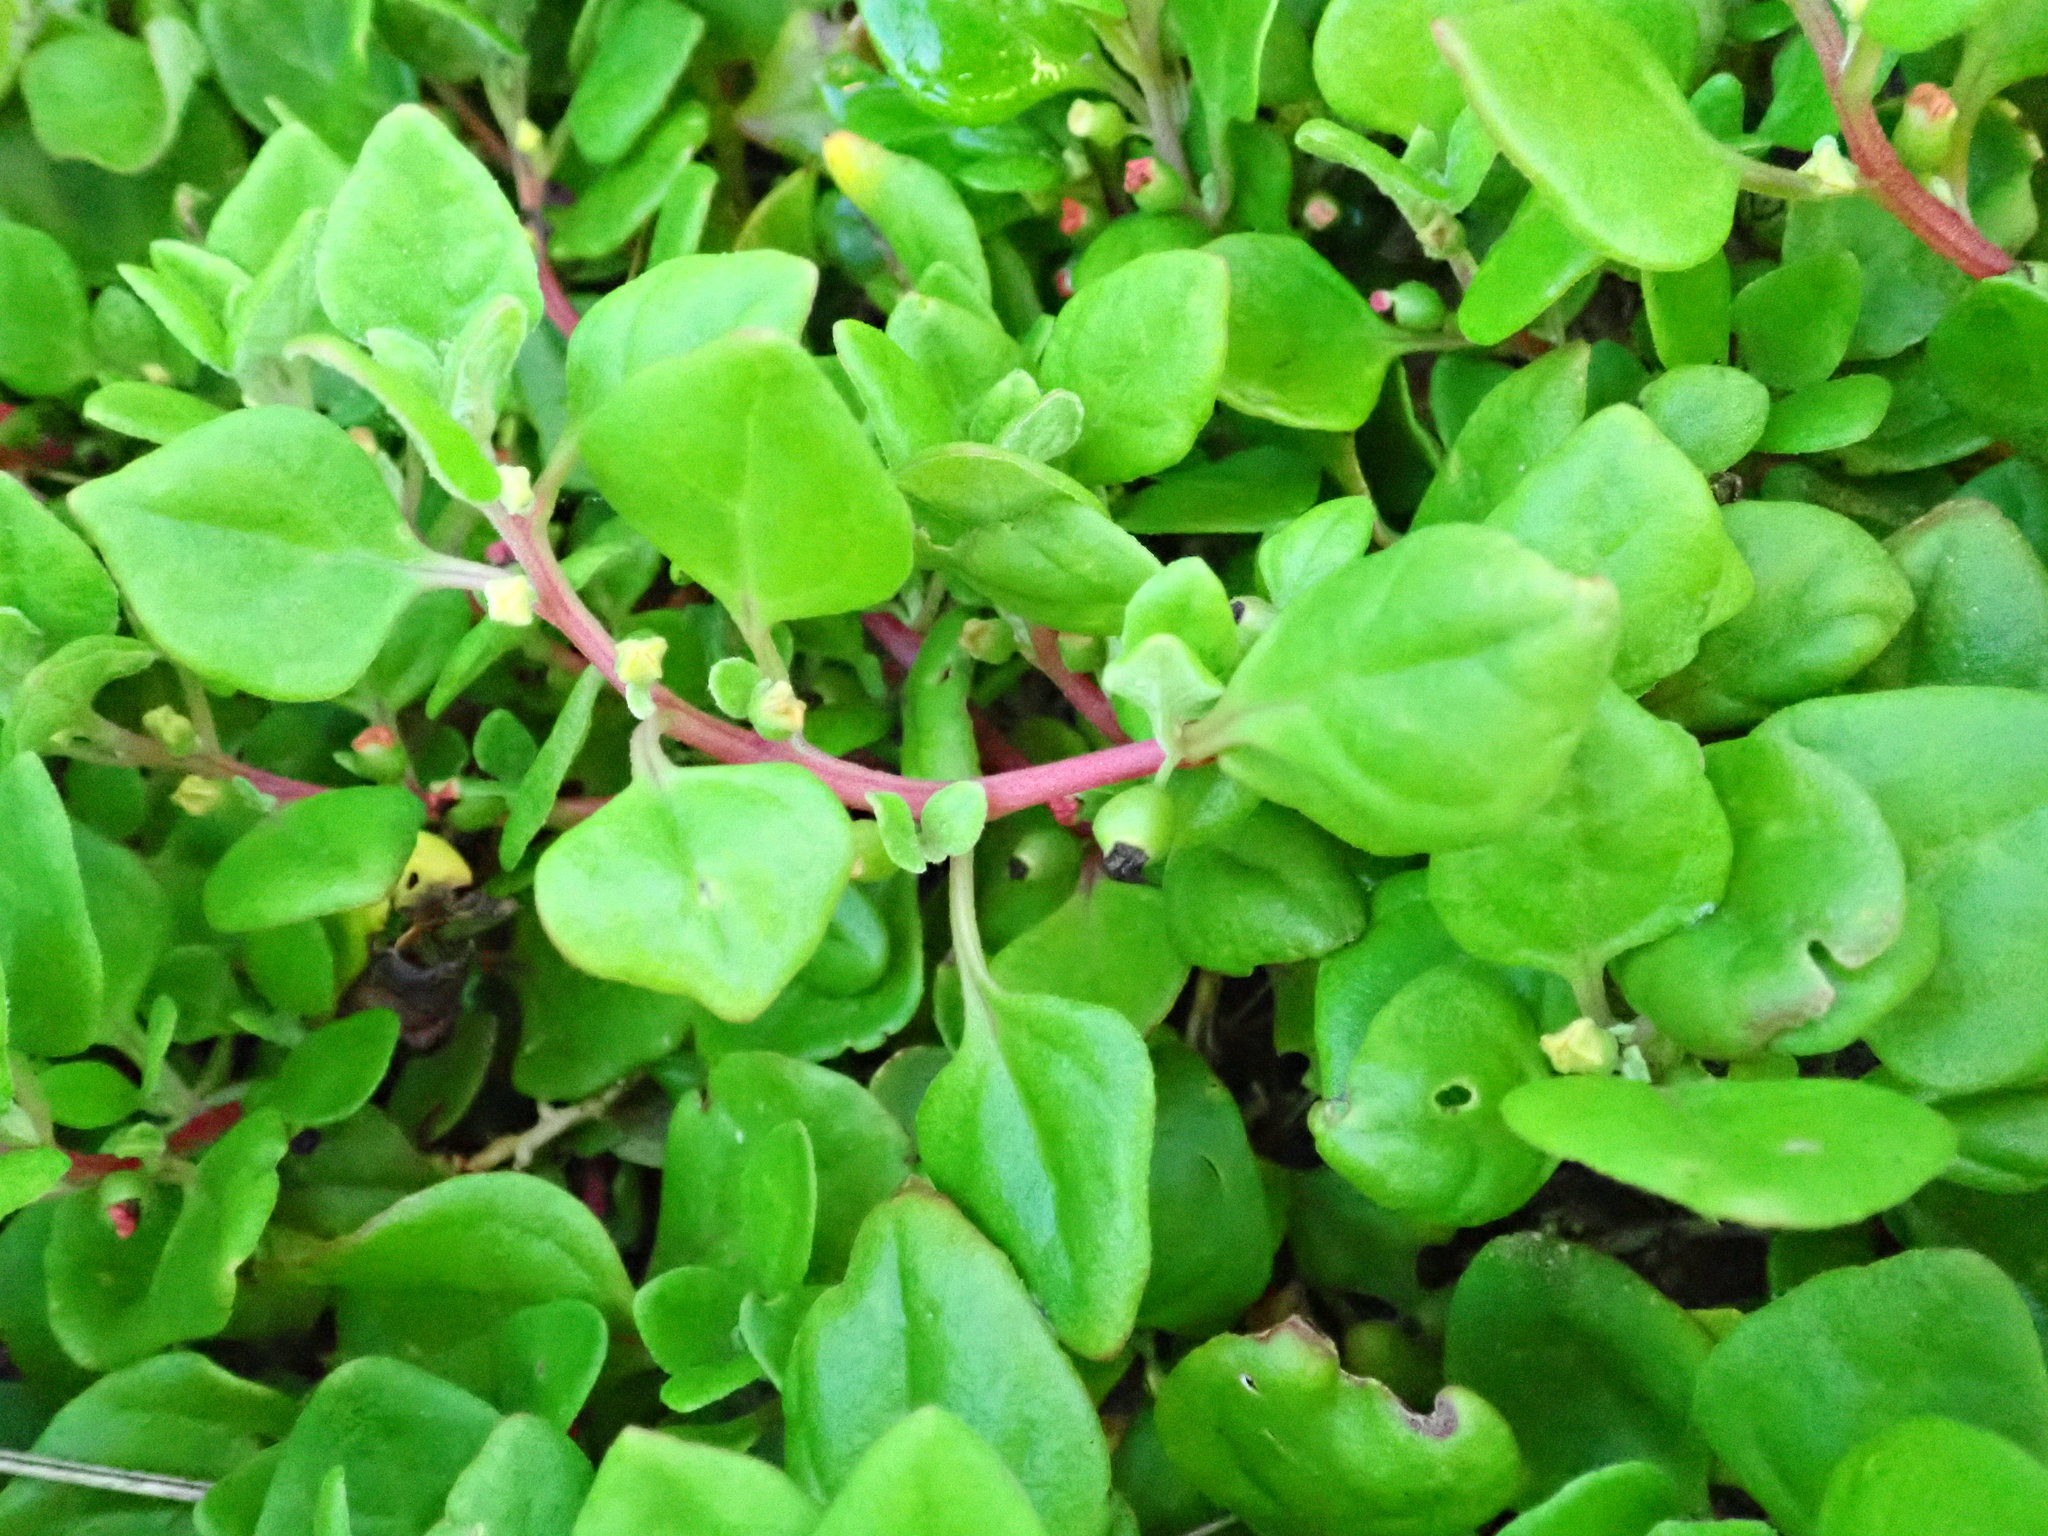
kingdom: Plantae
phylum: Tracheophyta
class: Magnoliopsida
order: Caryophyllales
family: Aizoaceae
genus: Tetragonia
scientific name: Tetragonia implexicoma
